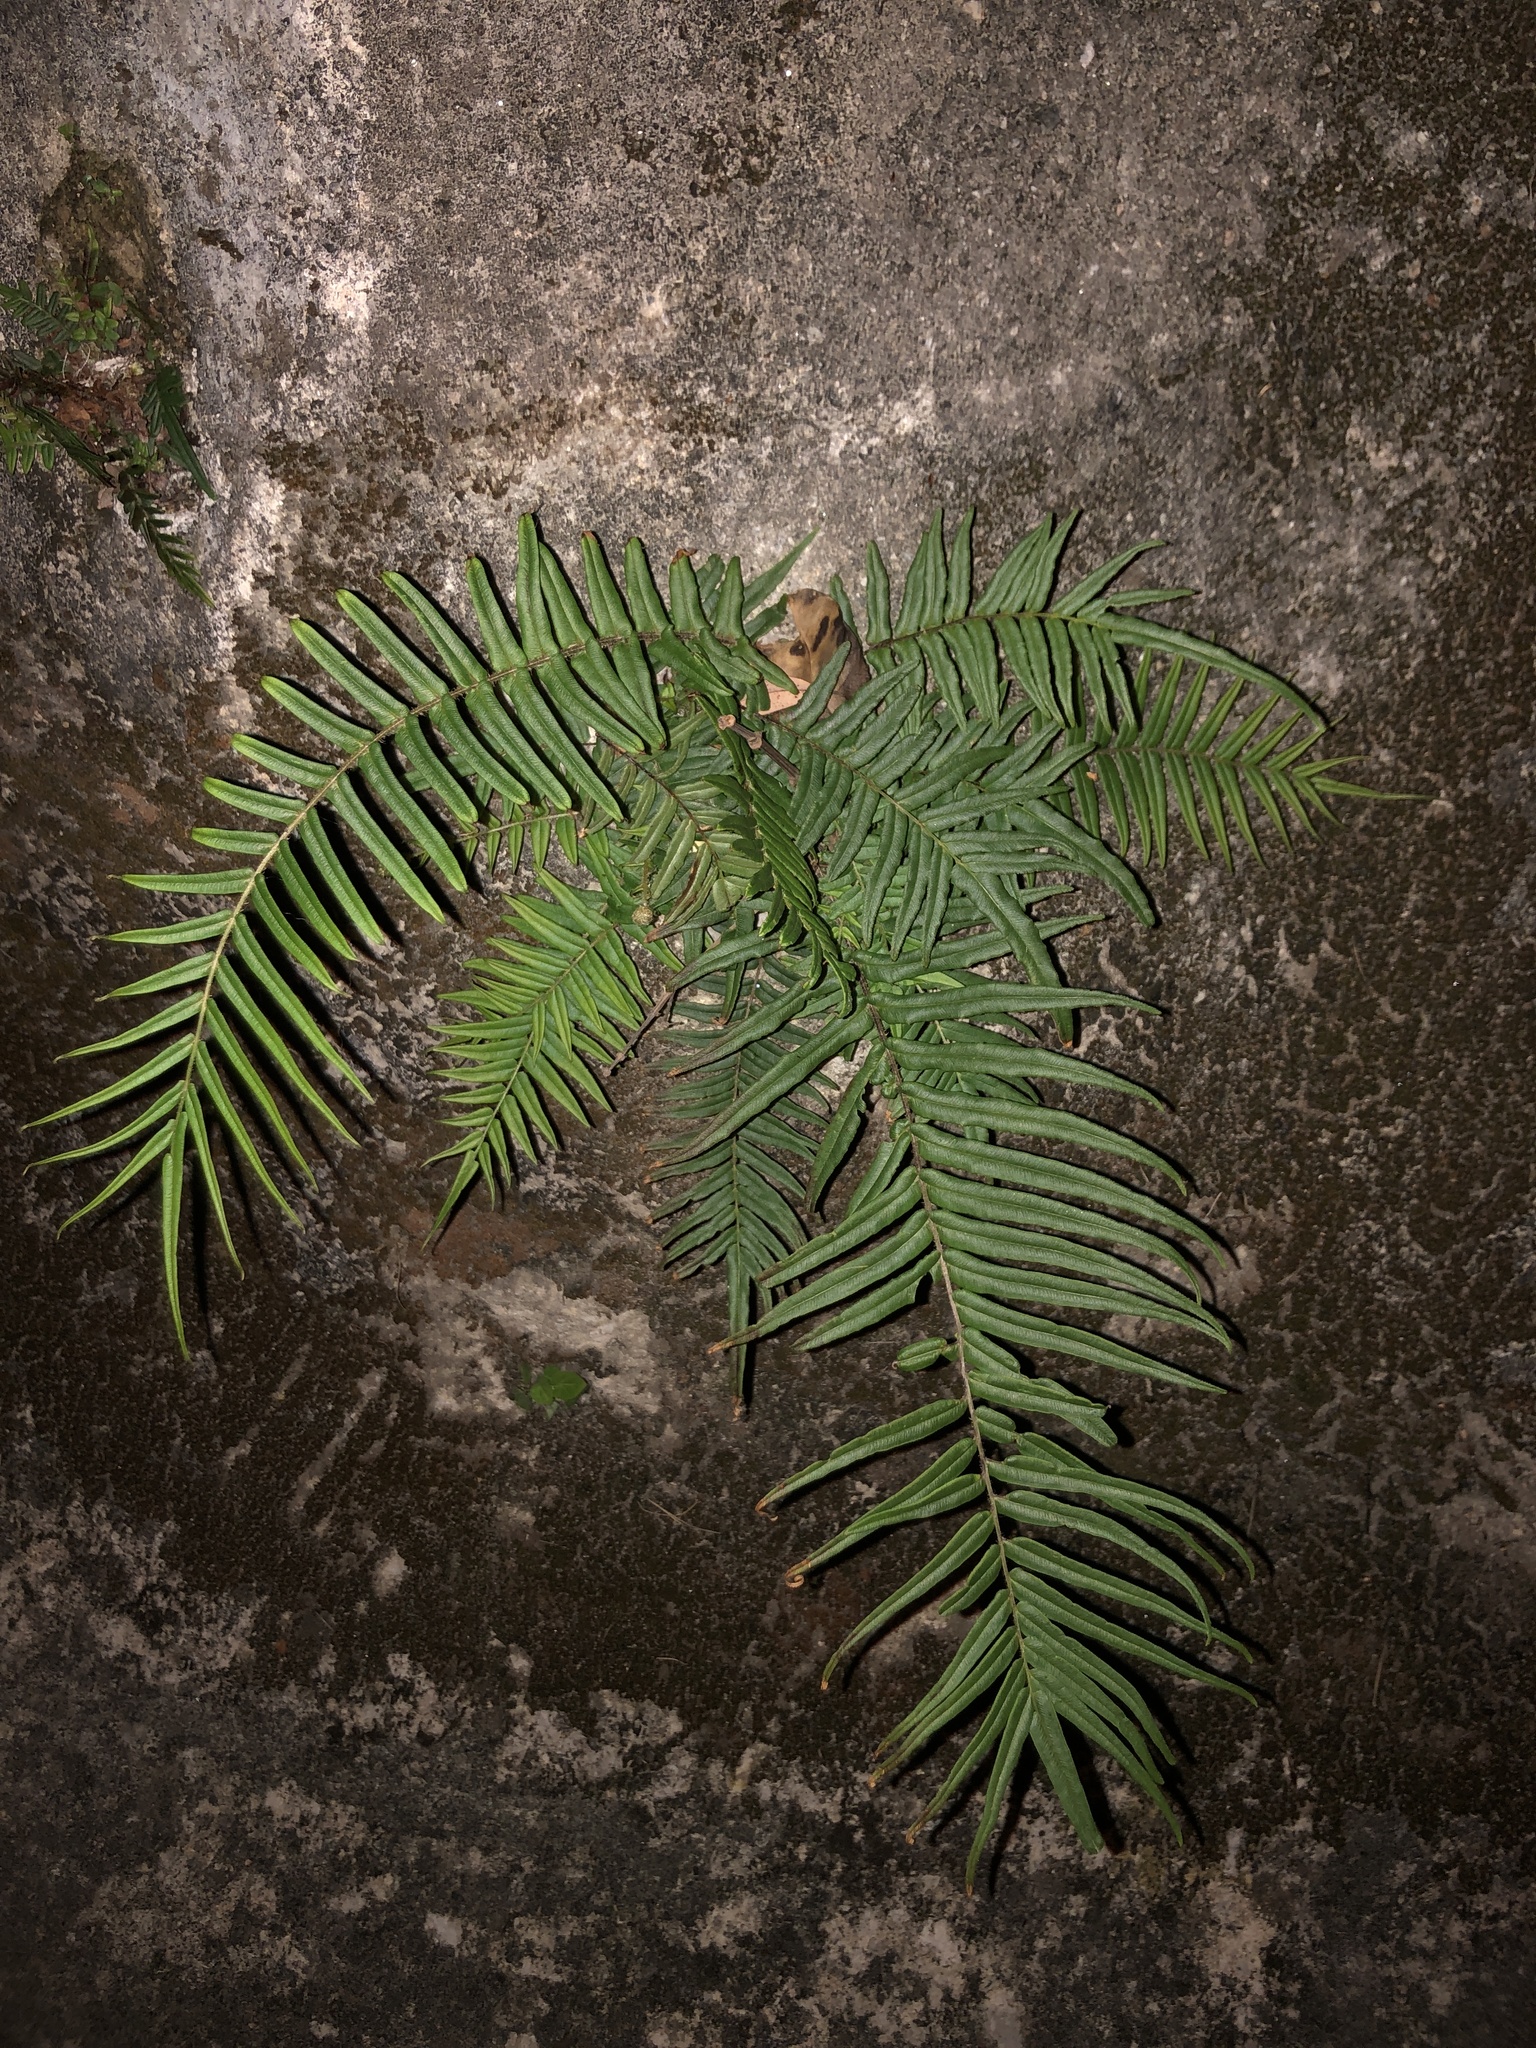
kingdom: Plantae
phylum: Tracheophyta
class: Polypodiopsida
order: Polypodiales
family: Pteridaceae
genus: Pteris
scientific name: Pteris vittata
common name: Ladder brake
